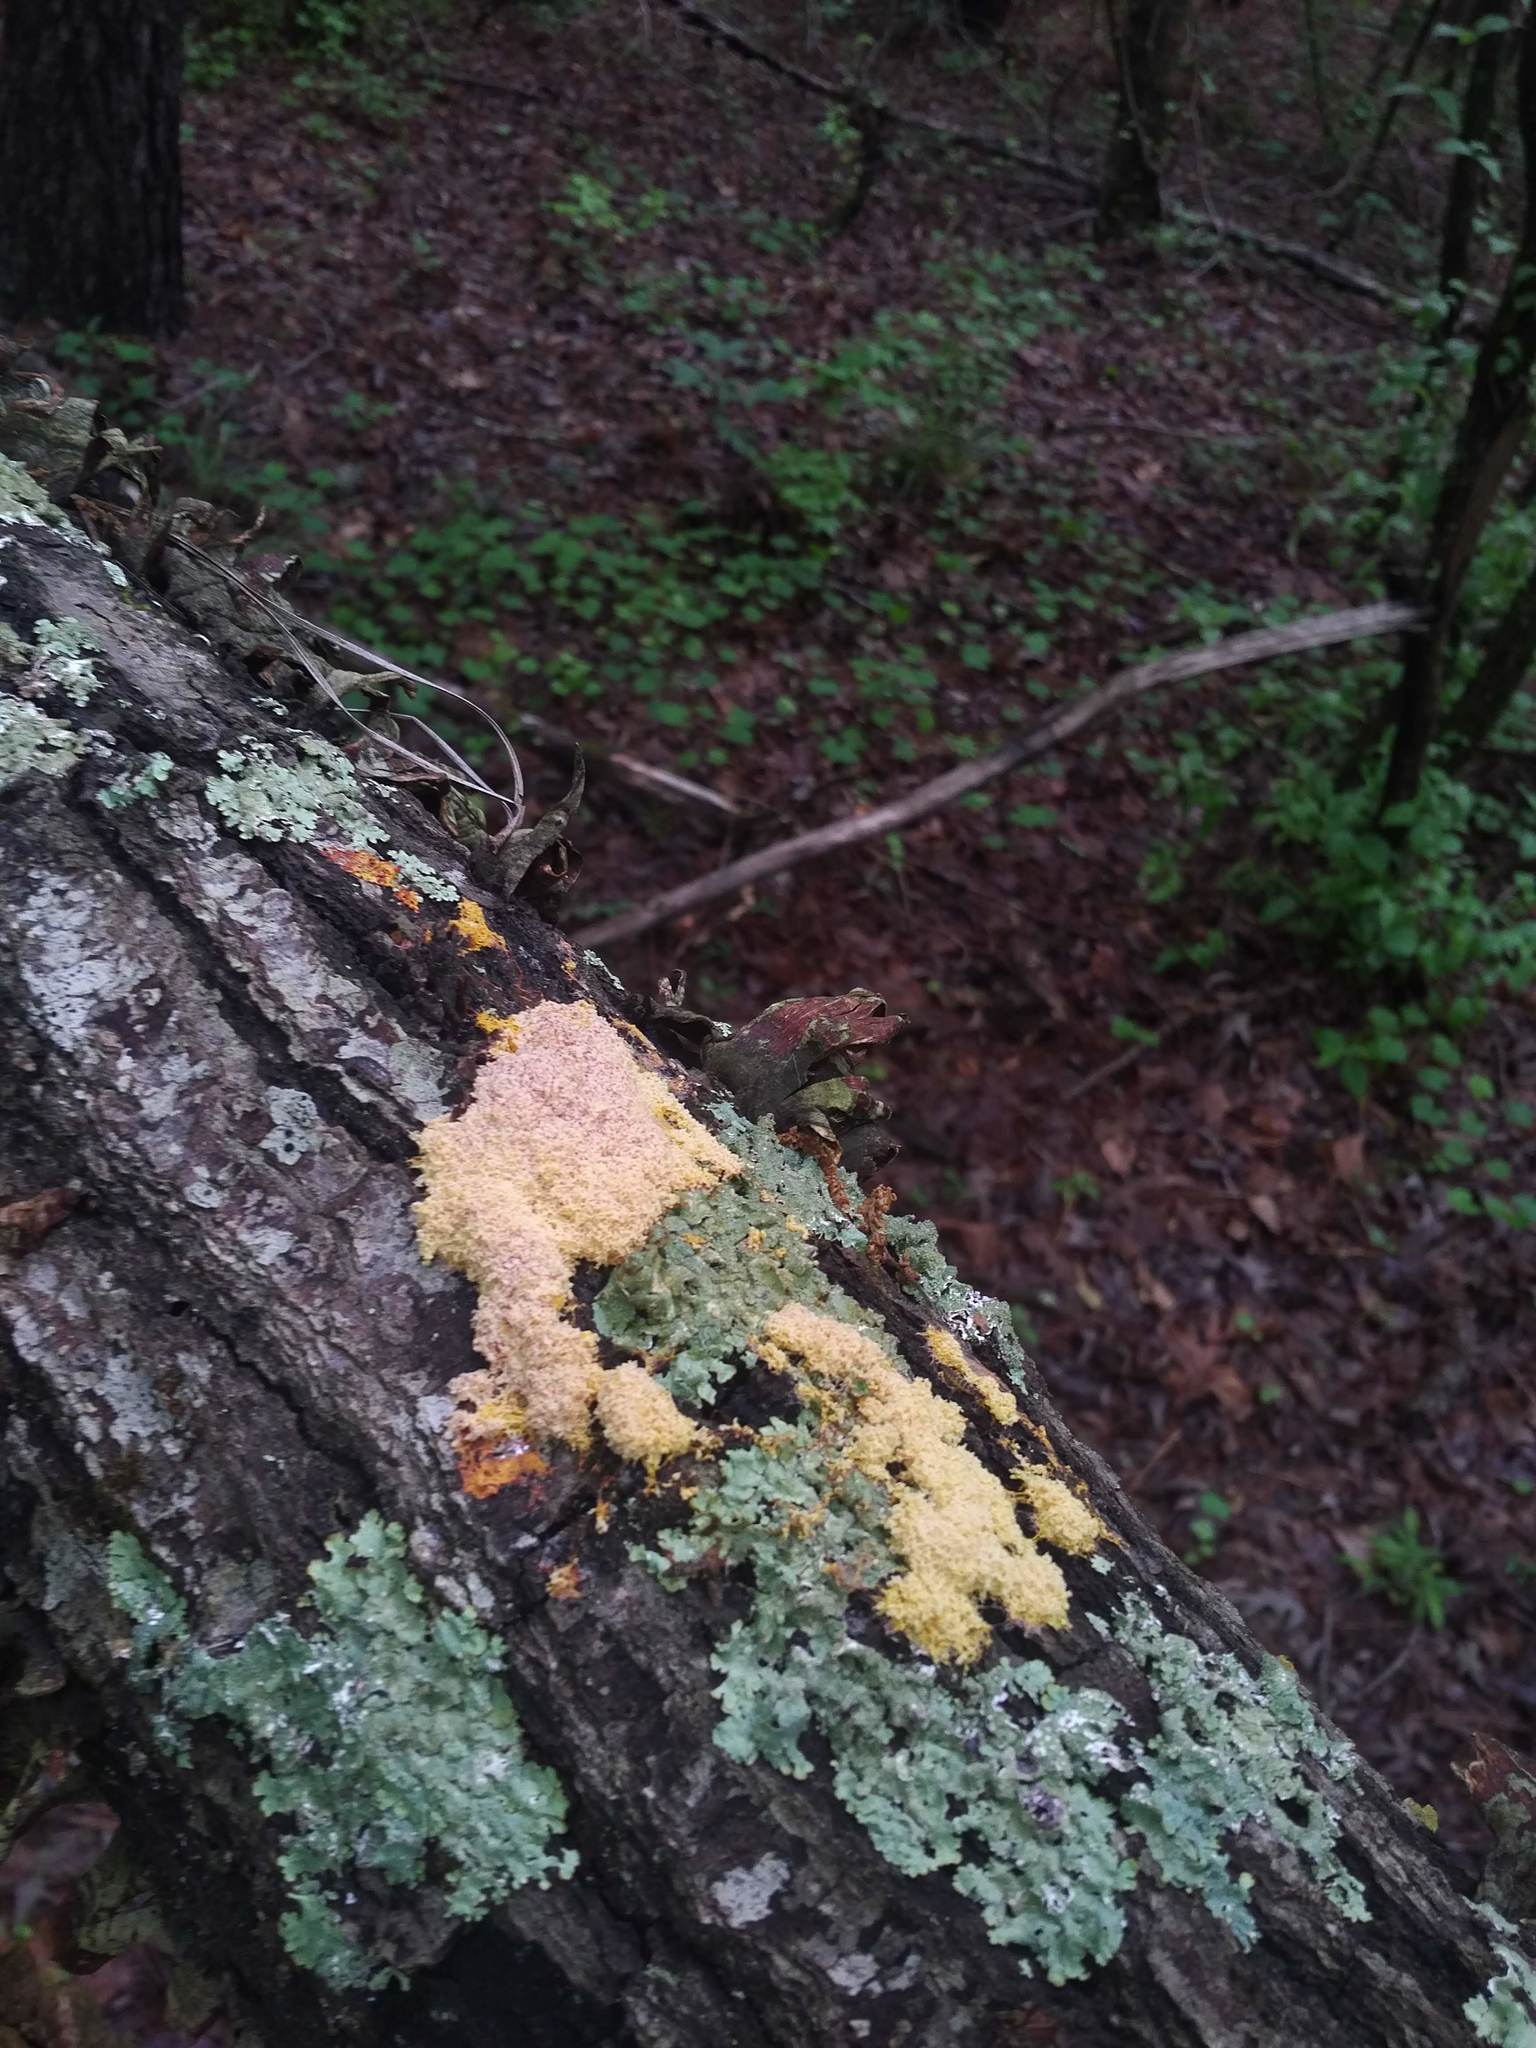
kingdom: Protozoa
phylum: Mycetozoa
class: Myxomycetes
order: Physarales
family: Physaraceae
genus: Fuligo
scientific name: Fuligo septica
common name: Dog vomit slime mold
